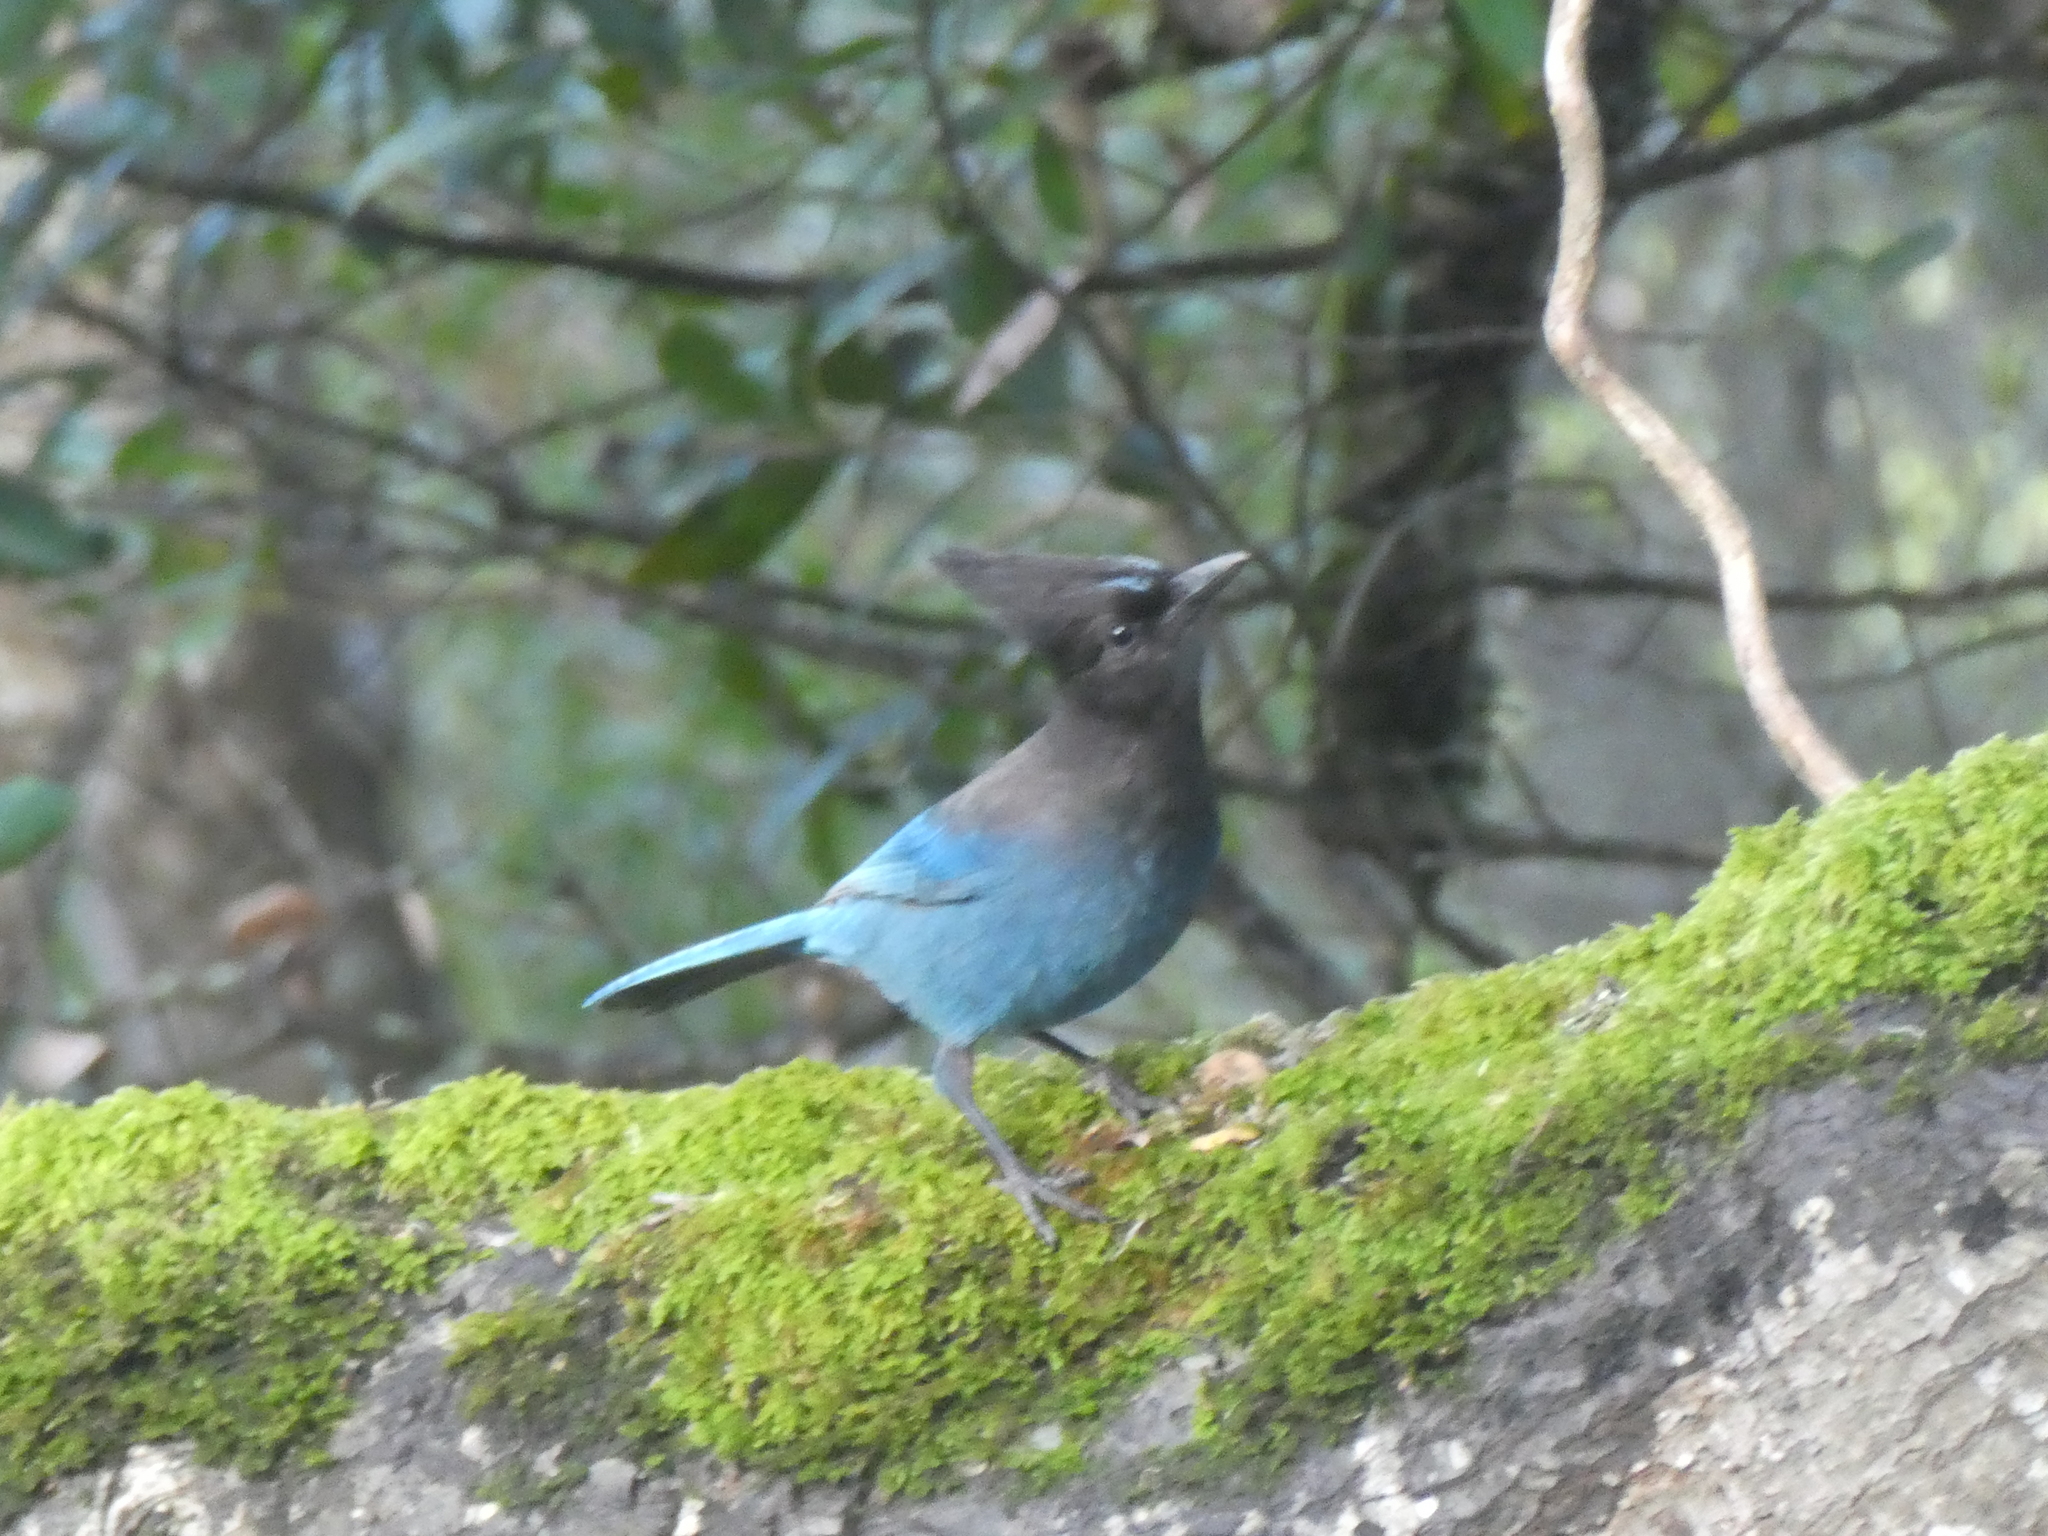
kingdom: Animalia
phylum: Chordata
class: Aves
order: Passeriformes
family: Corvidae
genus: Cyanocitta
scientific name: Cyanocitta stelleri
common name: Steller's jay
